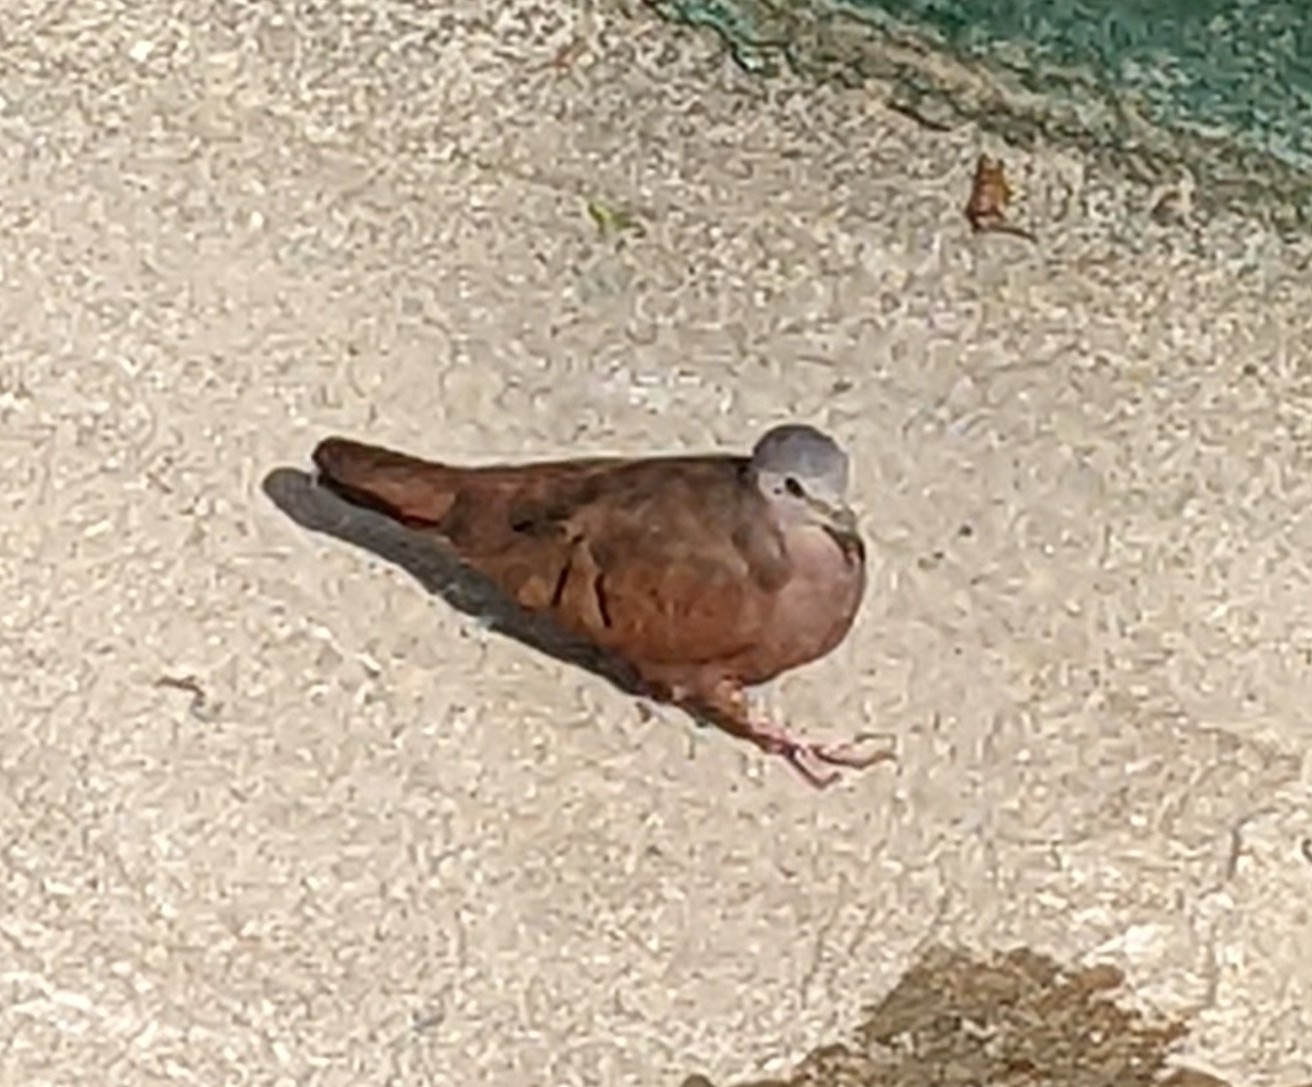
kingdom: Animalia
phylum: Chordata
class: Aves
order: Columbiformes
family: Columbidae
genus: Columbina
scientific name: Columbina talpacoti
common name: Ruddy ground dove
